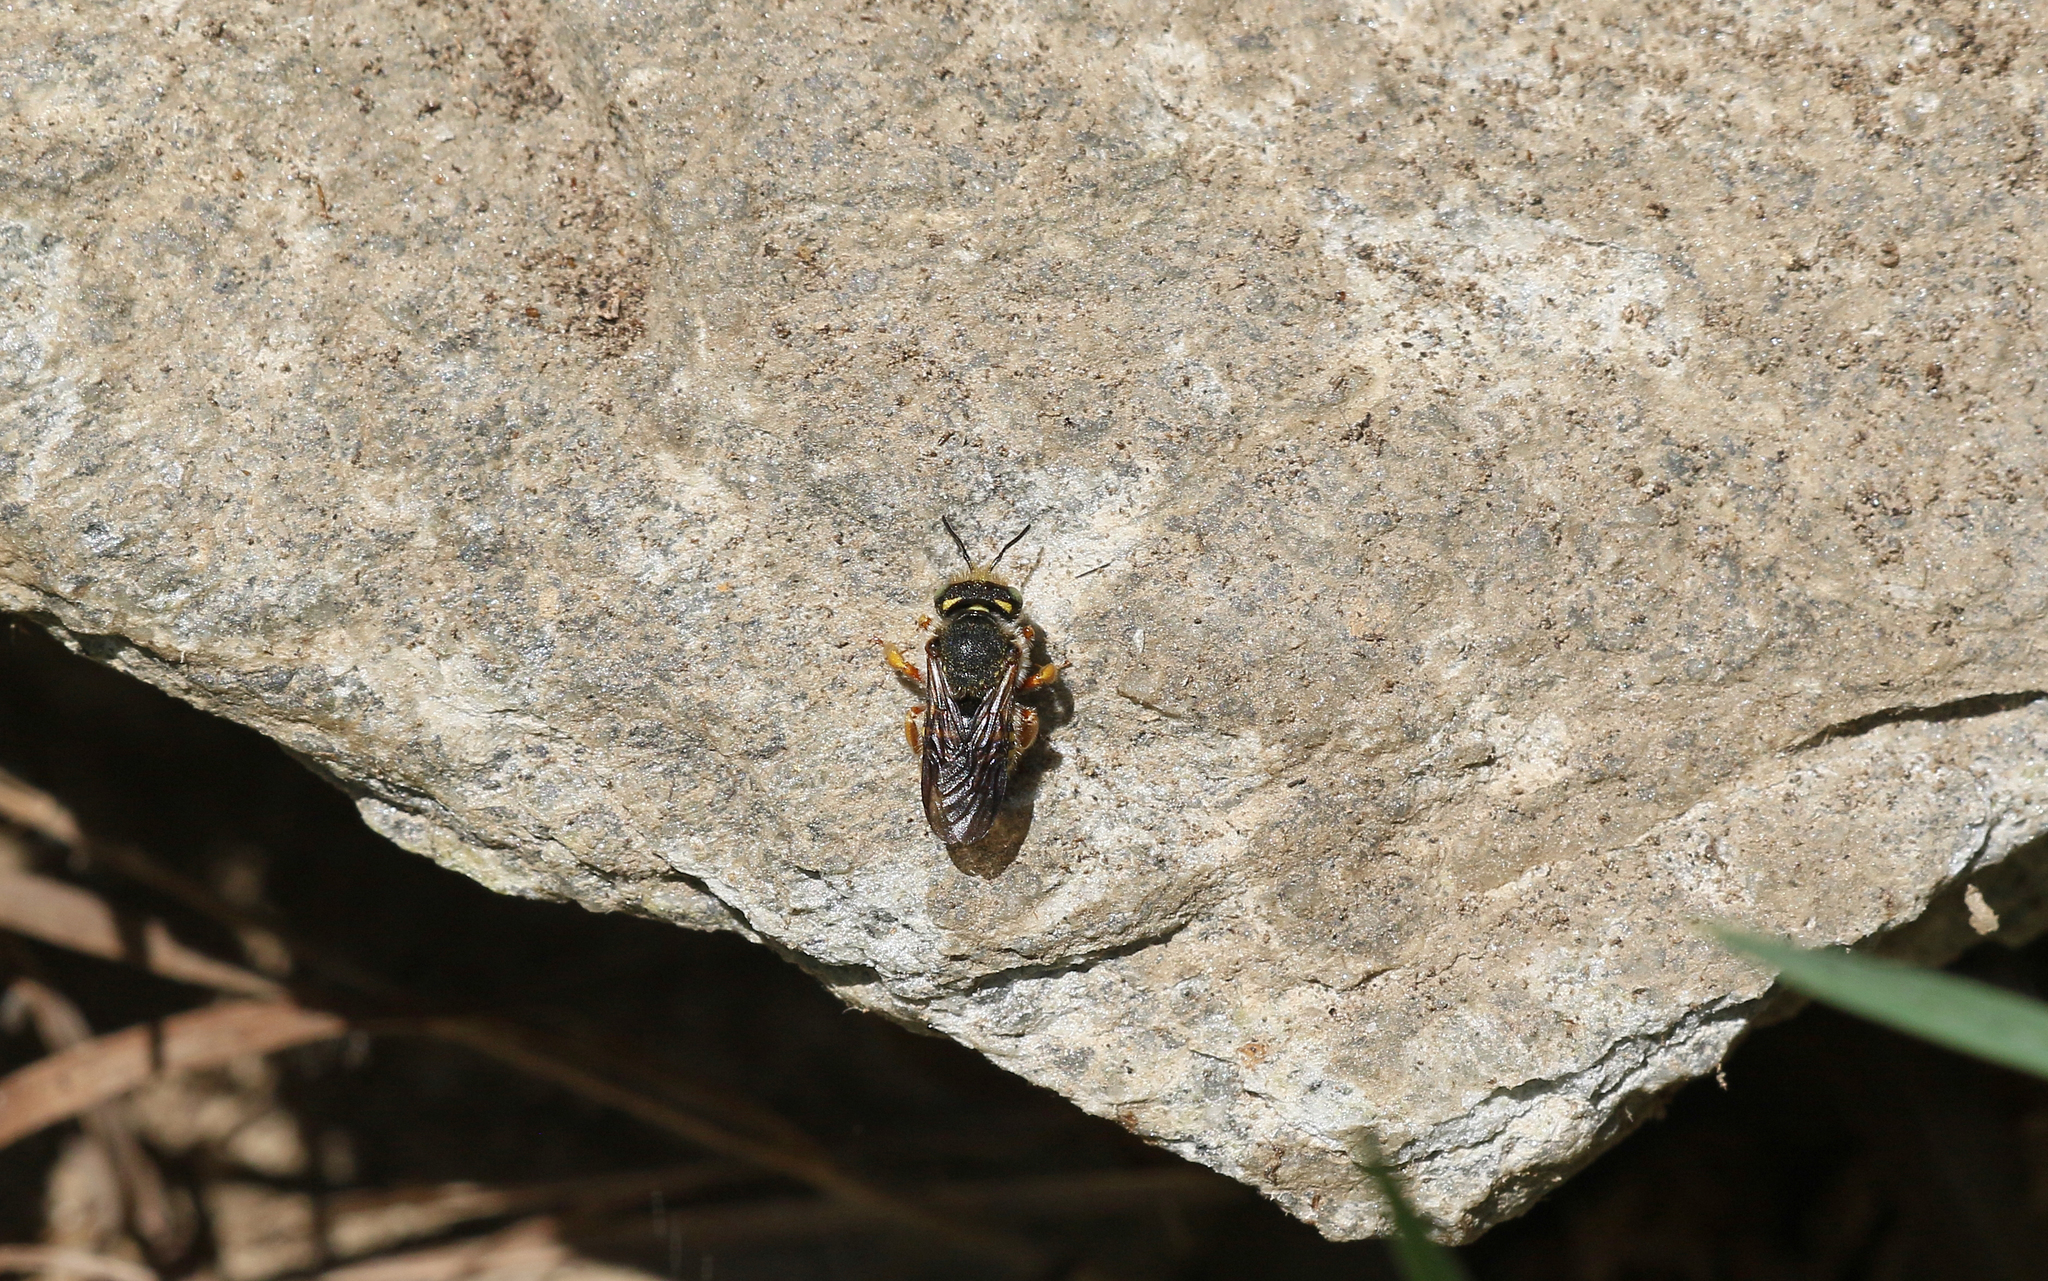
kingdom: Animalia
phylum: Arthropoda
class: Insecta
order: Hymenoptera
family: Megachilidae
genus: Anthidium
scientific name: Anthidium oblongatum
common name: Oblong wool carder bee
